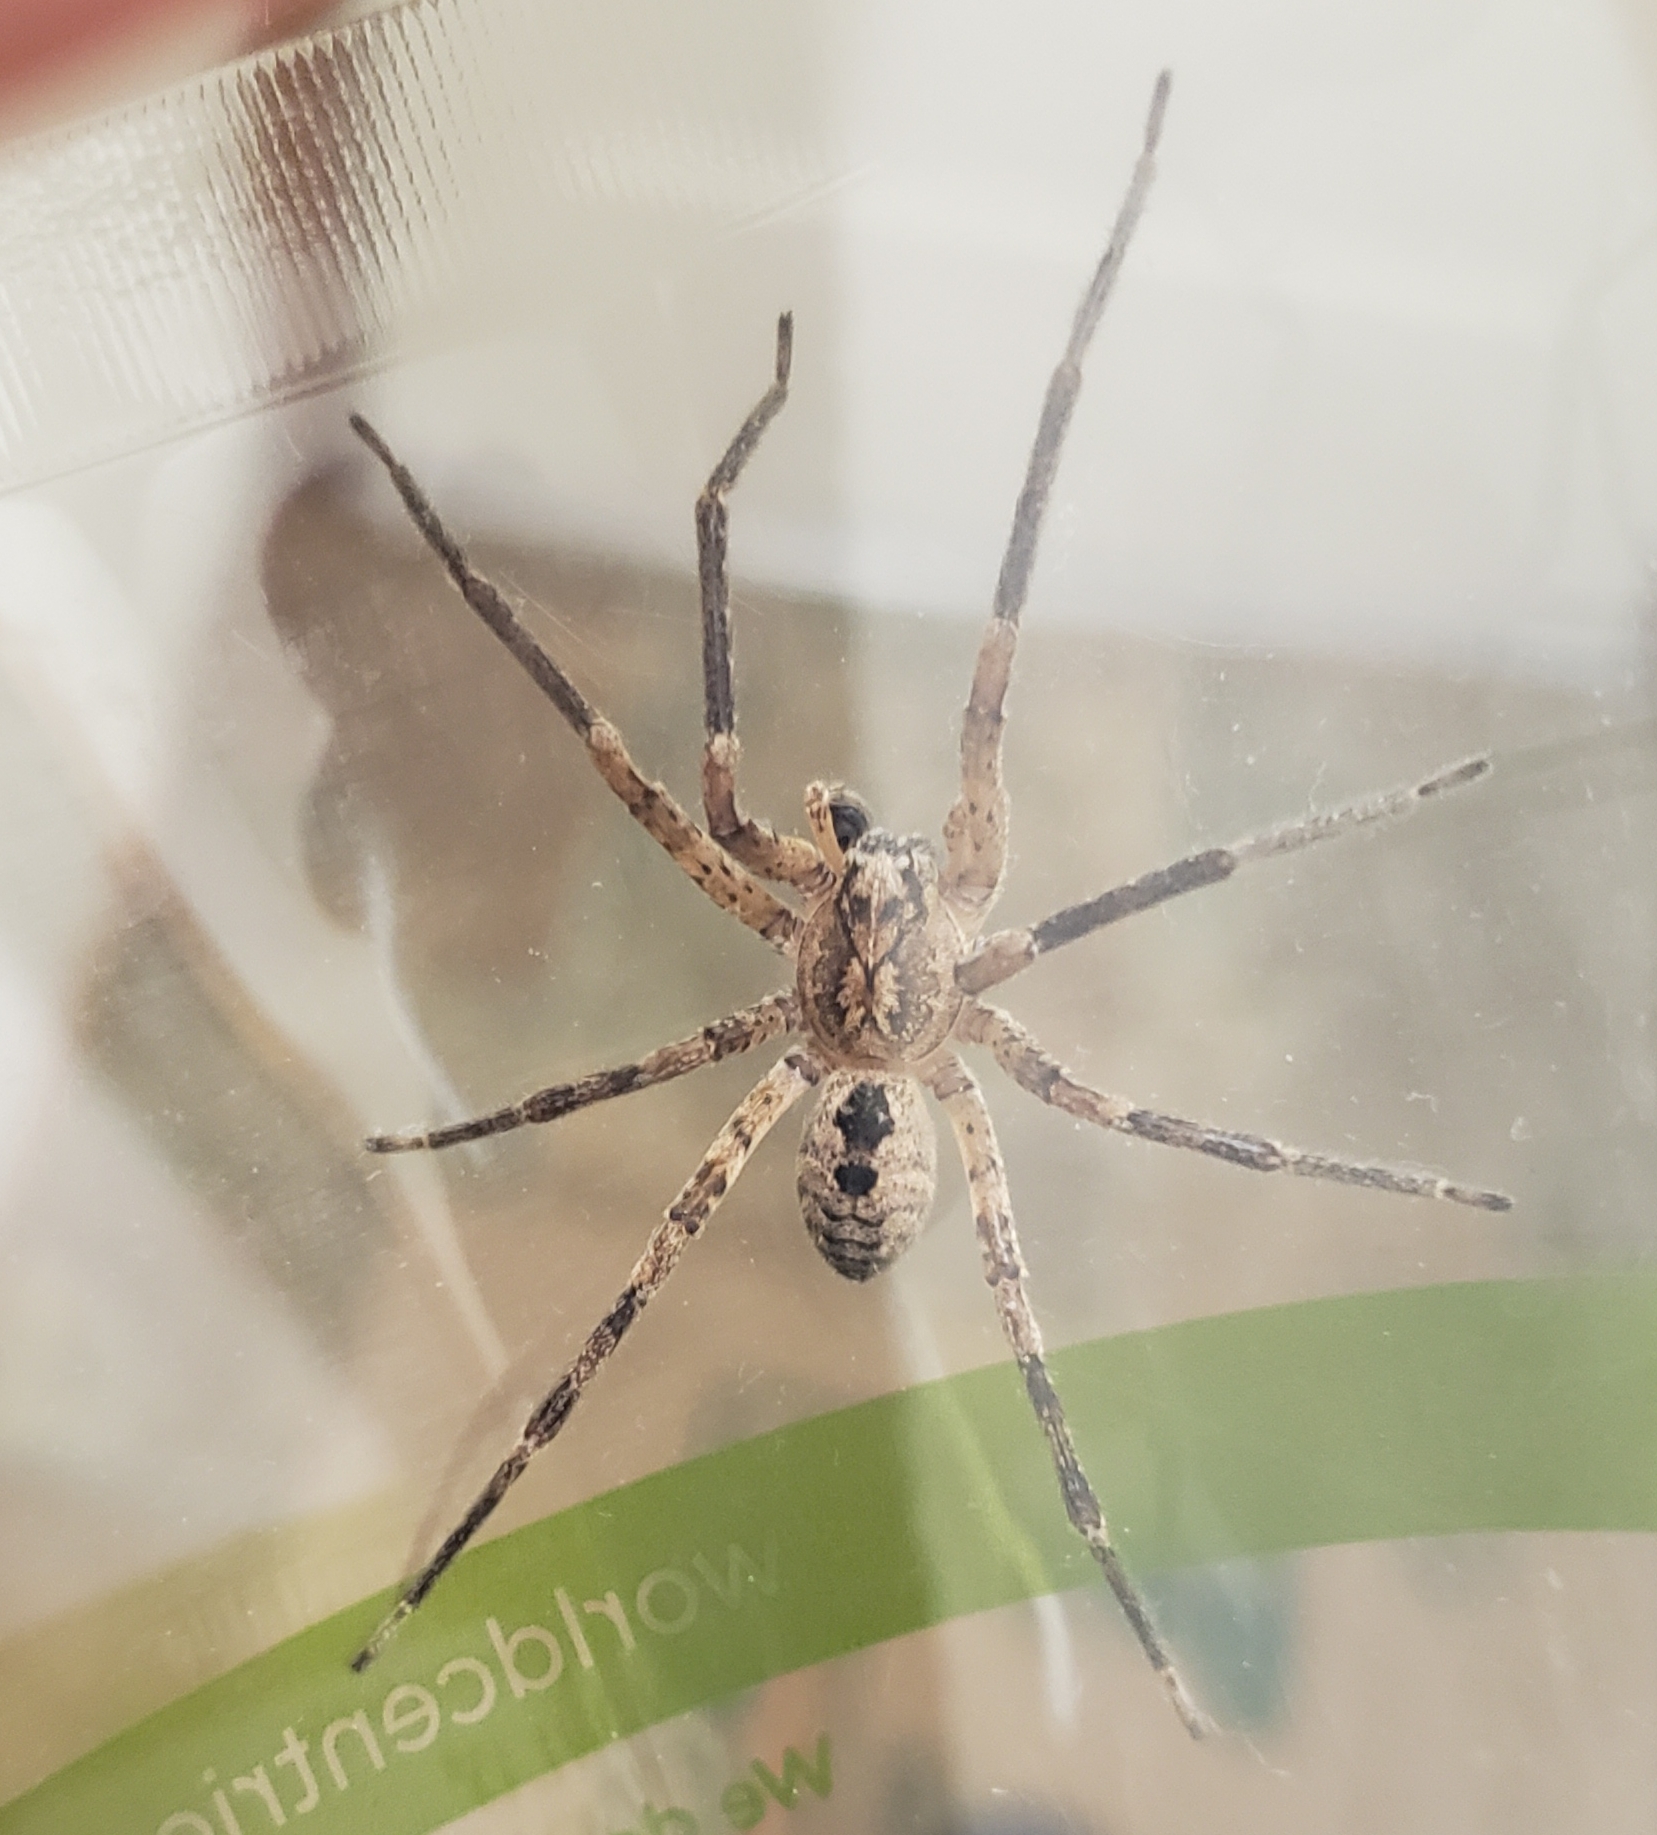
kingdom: Animalia
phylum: Arthropoda
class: Arachnida
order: Araneae
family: Zoropsidae
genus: Zoropsis
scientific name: Zoropsis spinimana
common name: Zoropsid spider
